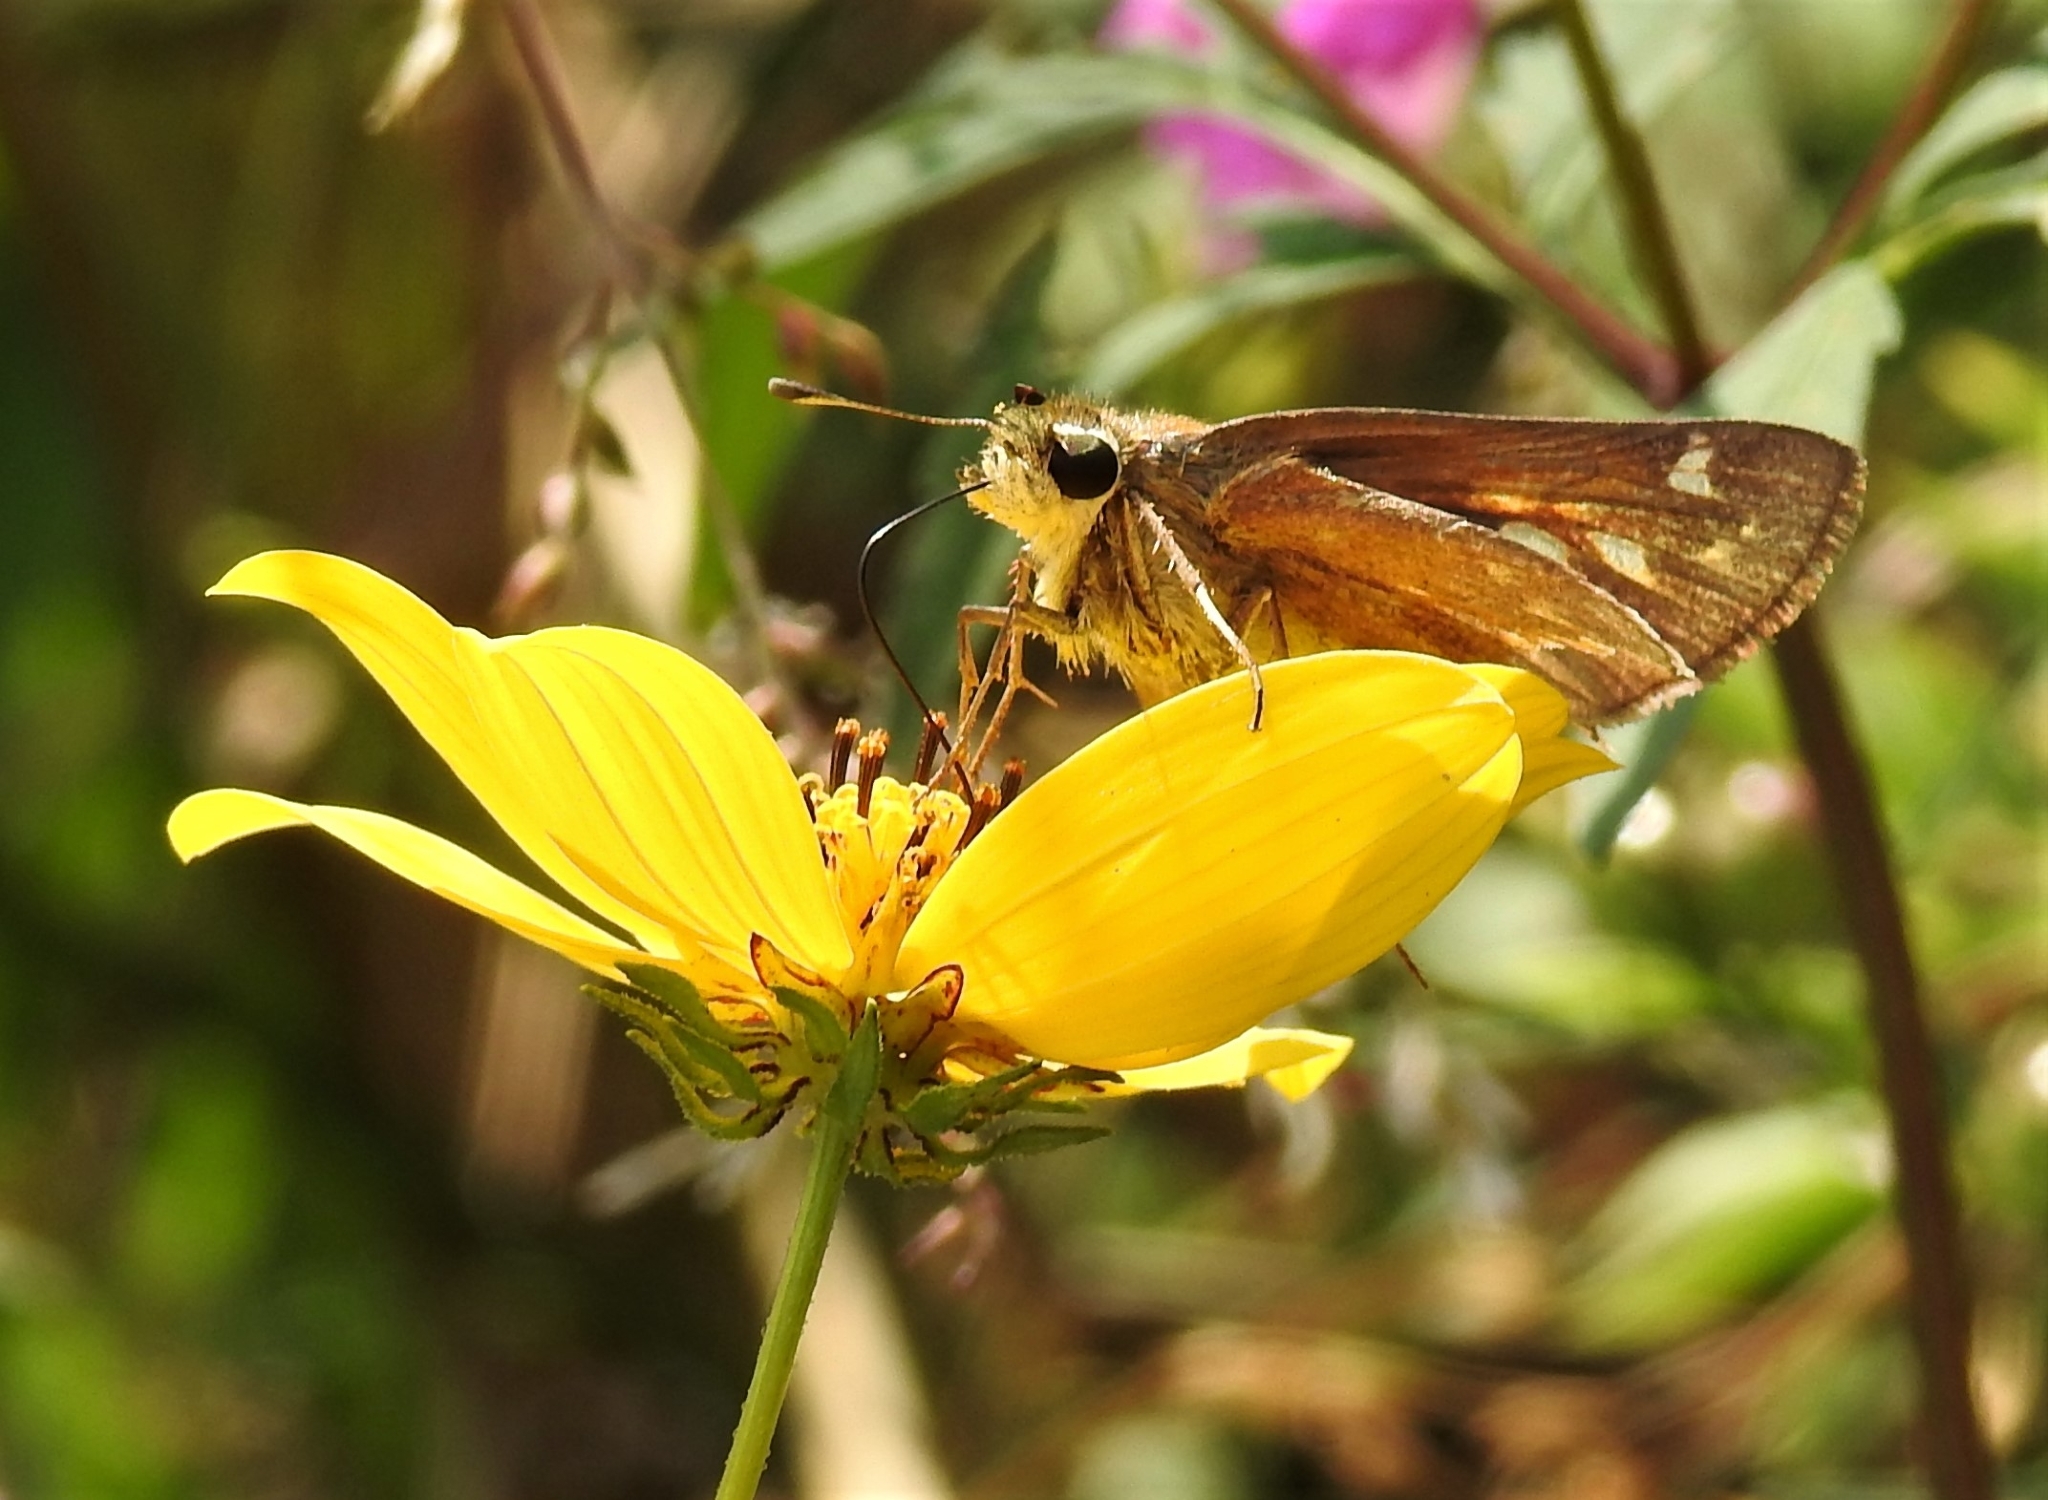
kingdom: Animalia
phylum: Arthropoda
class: Insecta
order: Lepidoptera
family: Hesperiidae
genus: Atalopedes
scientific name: Atalopedes
